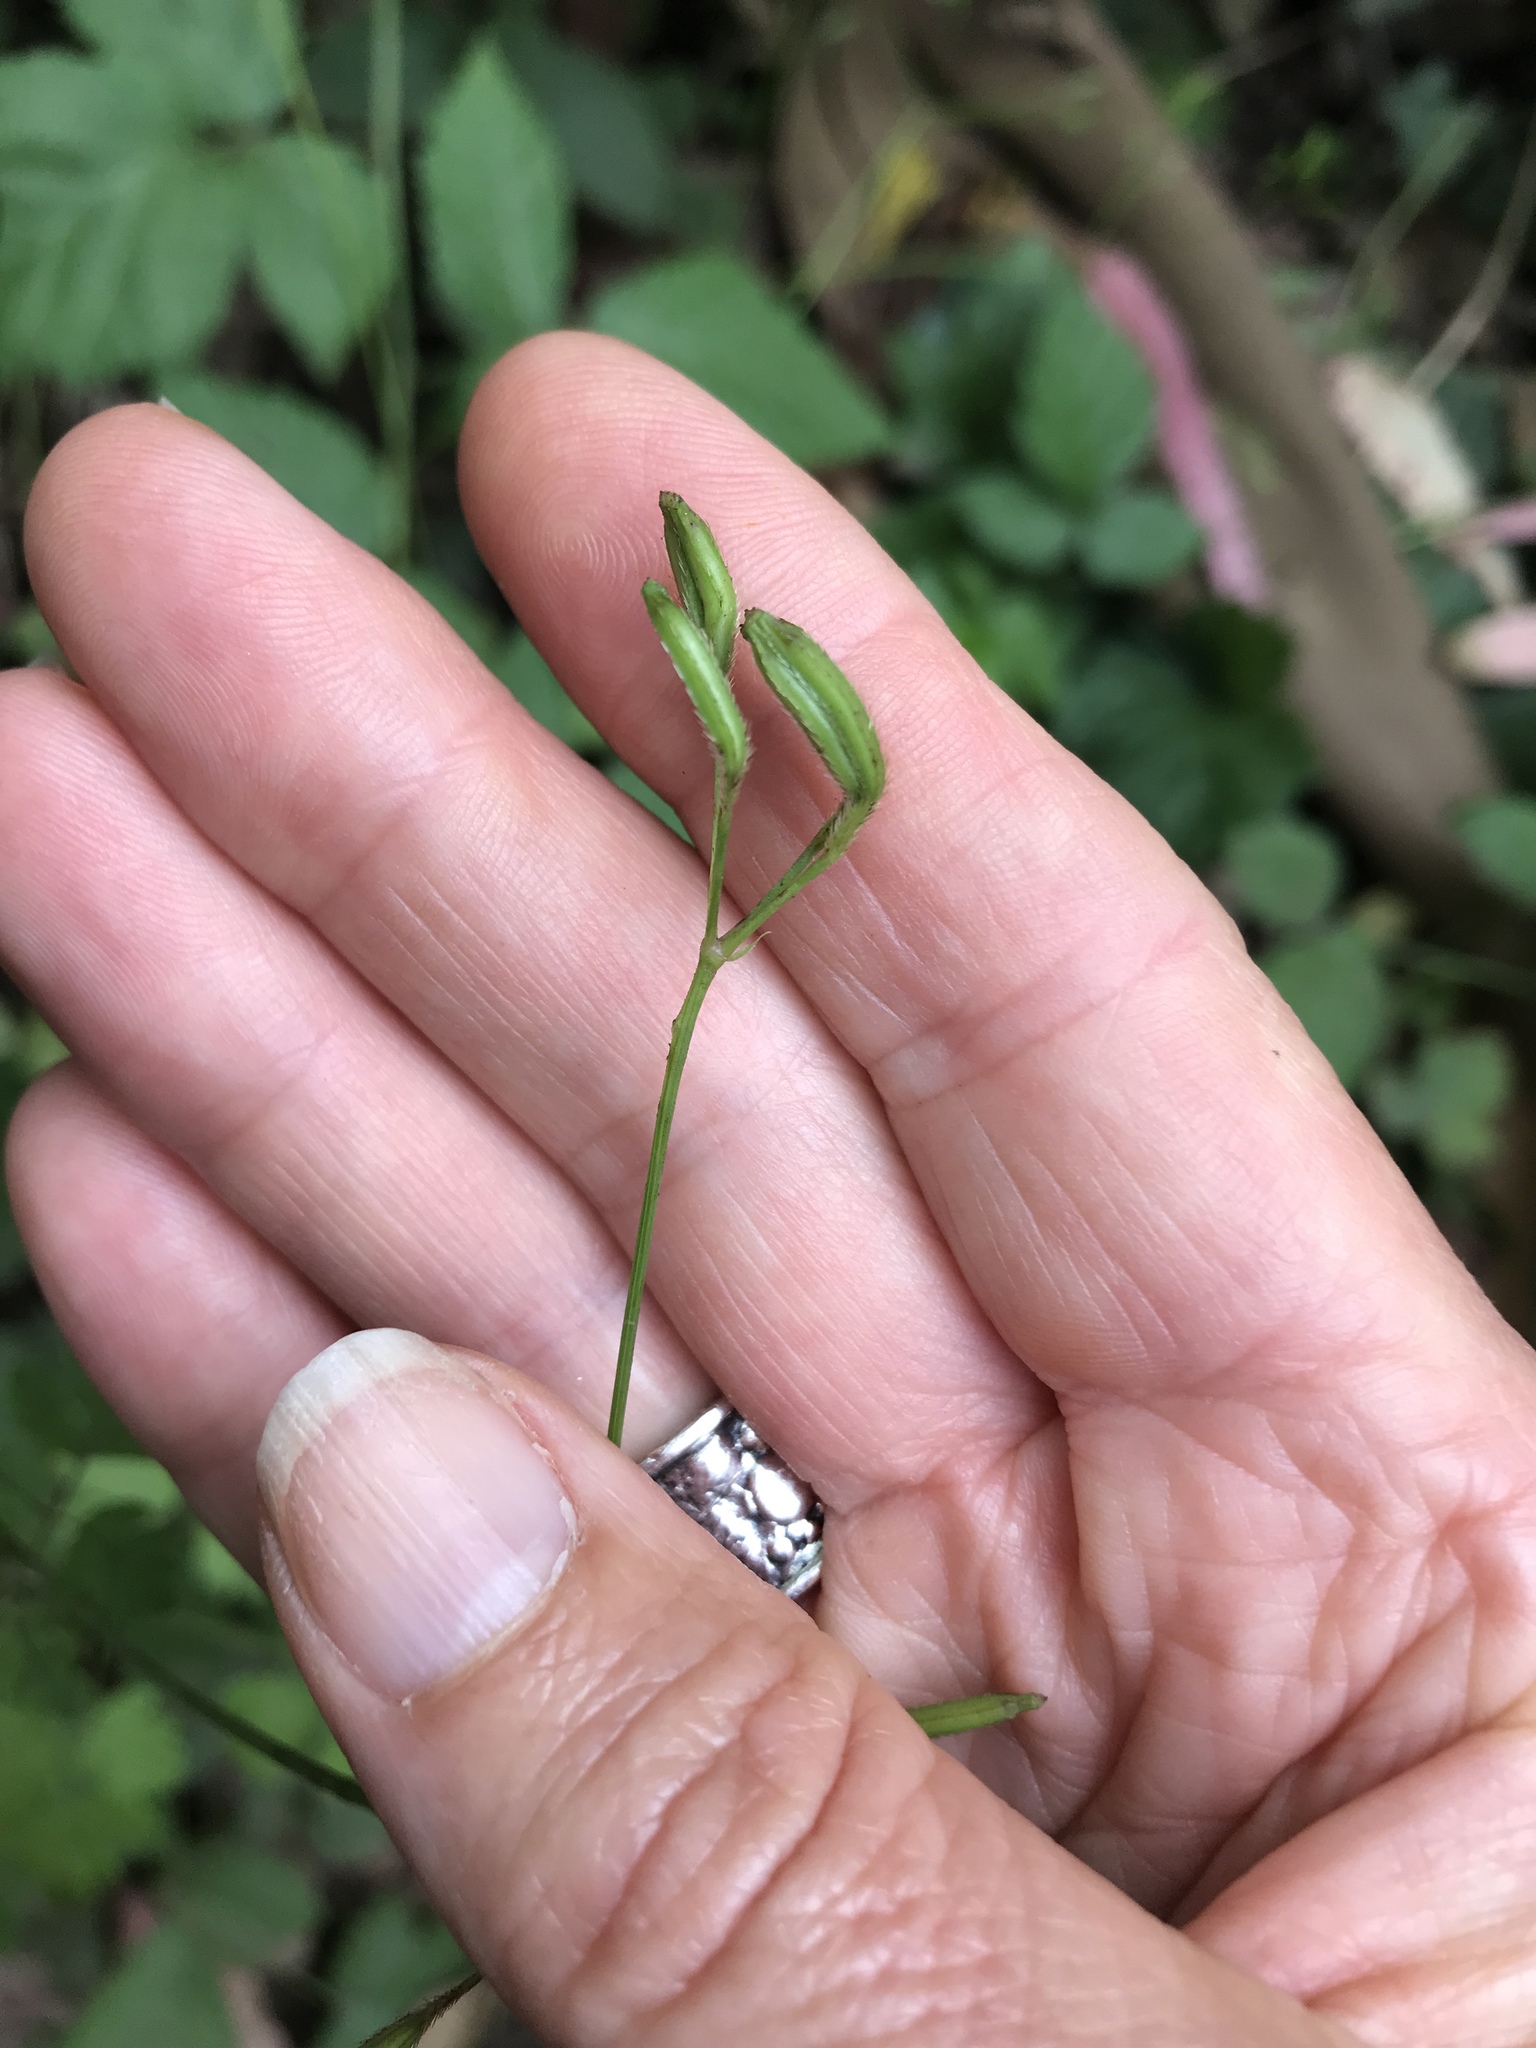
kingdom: Plantae
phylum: Tracheophyta
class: Magnoliopsida
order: Apiales
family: Apiaceae
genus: Osmorhiza
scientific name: Osmorhiza berteroi
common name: Mountain sweet cicely
